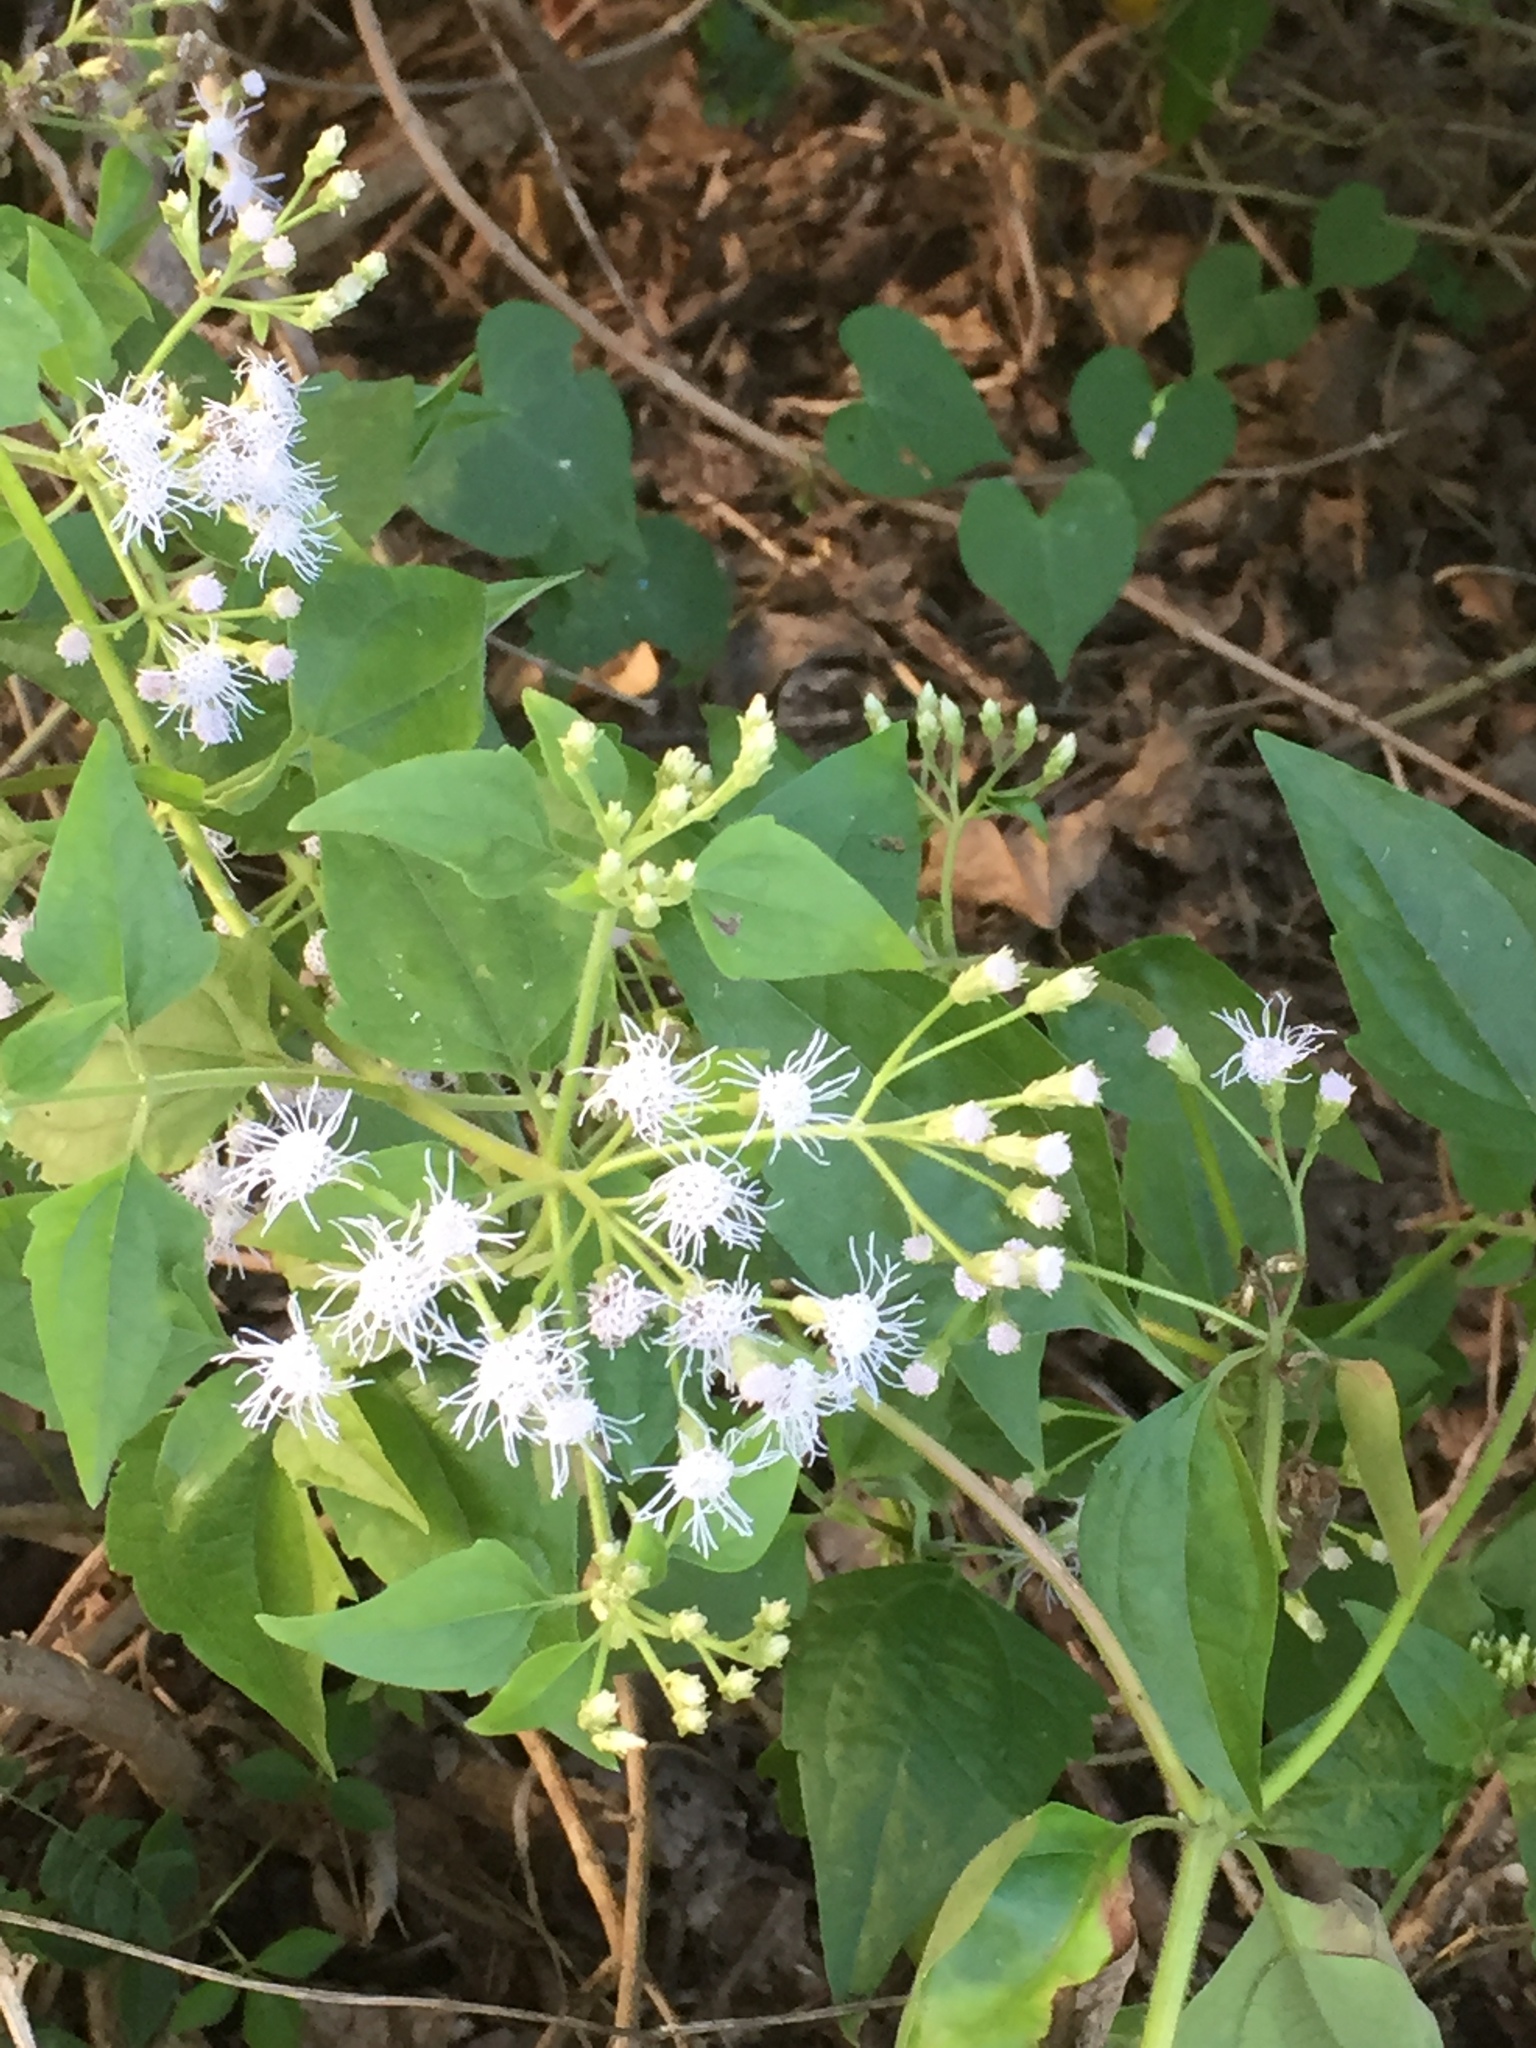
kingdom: Plantae
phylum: Tracheophyta
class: Magnoliopsida
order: Asterales
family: Asteraceae
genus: Chromolaena
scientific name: Chromolaena odorata
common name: Siamweed
